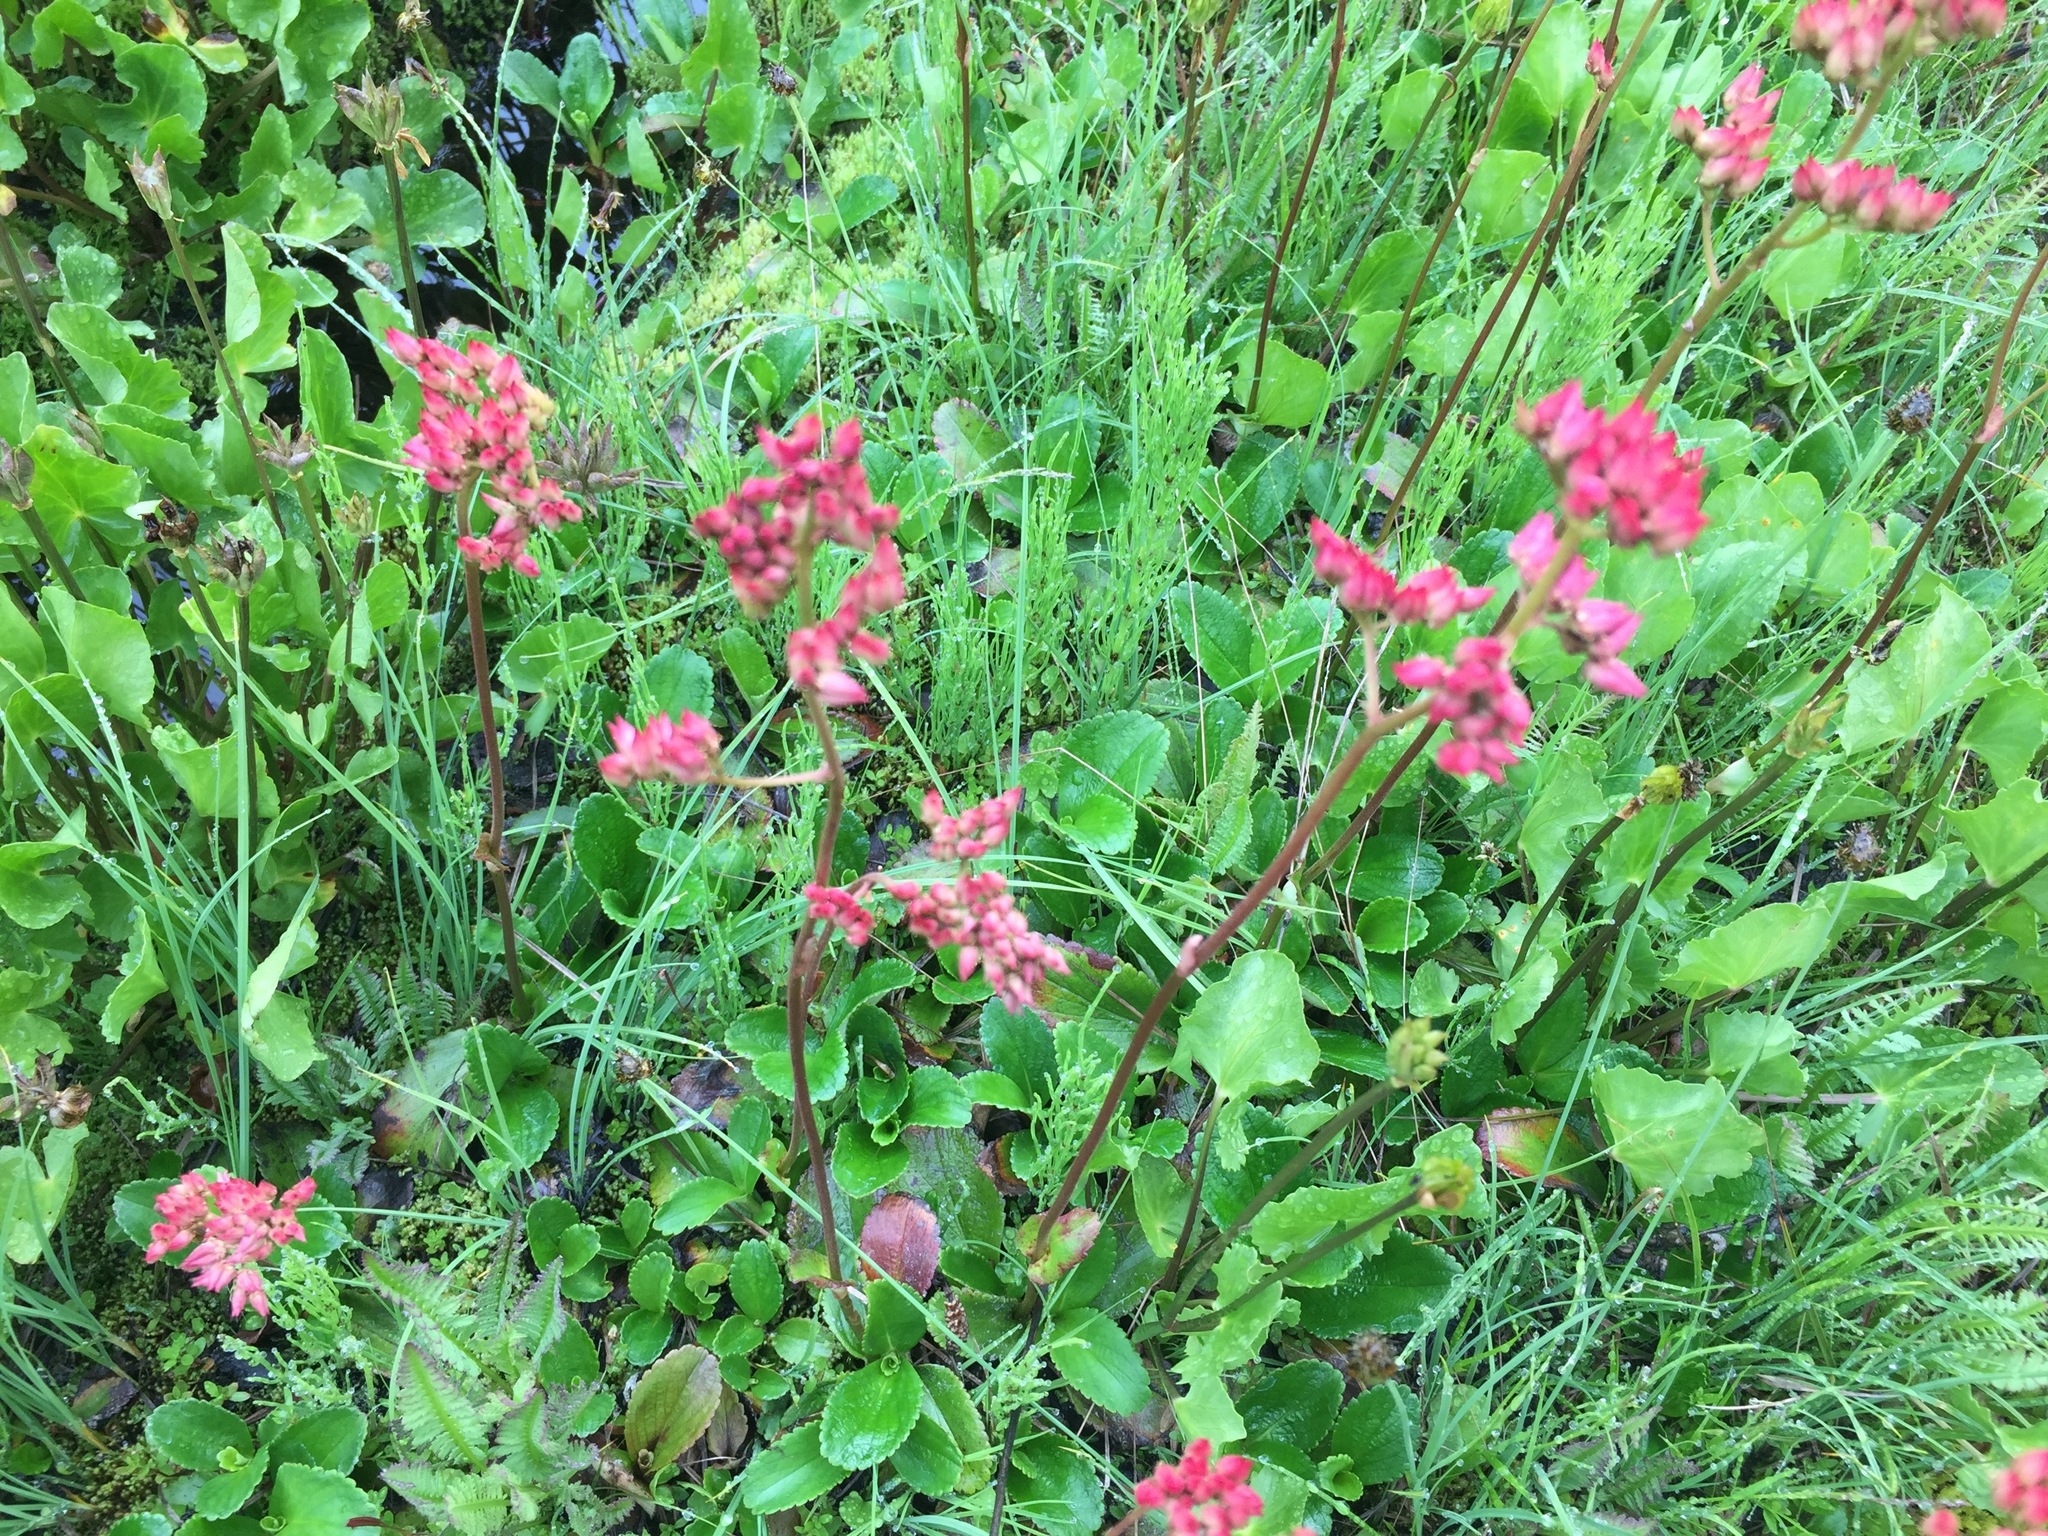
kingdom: Plantae
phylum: Tracheophyta
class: Magnoliopsida
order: Saxifragales
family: Saxifragaceae
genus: Leptarrhena
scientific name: Leptarrhena pyrolifolia
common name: Leatherleaf-saxifrage
